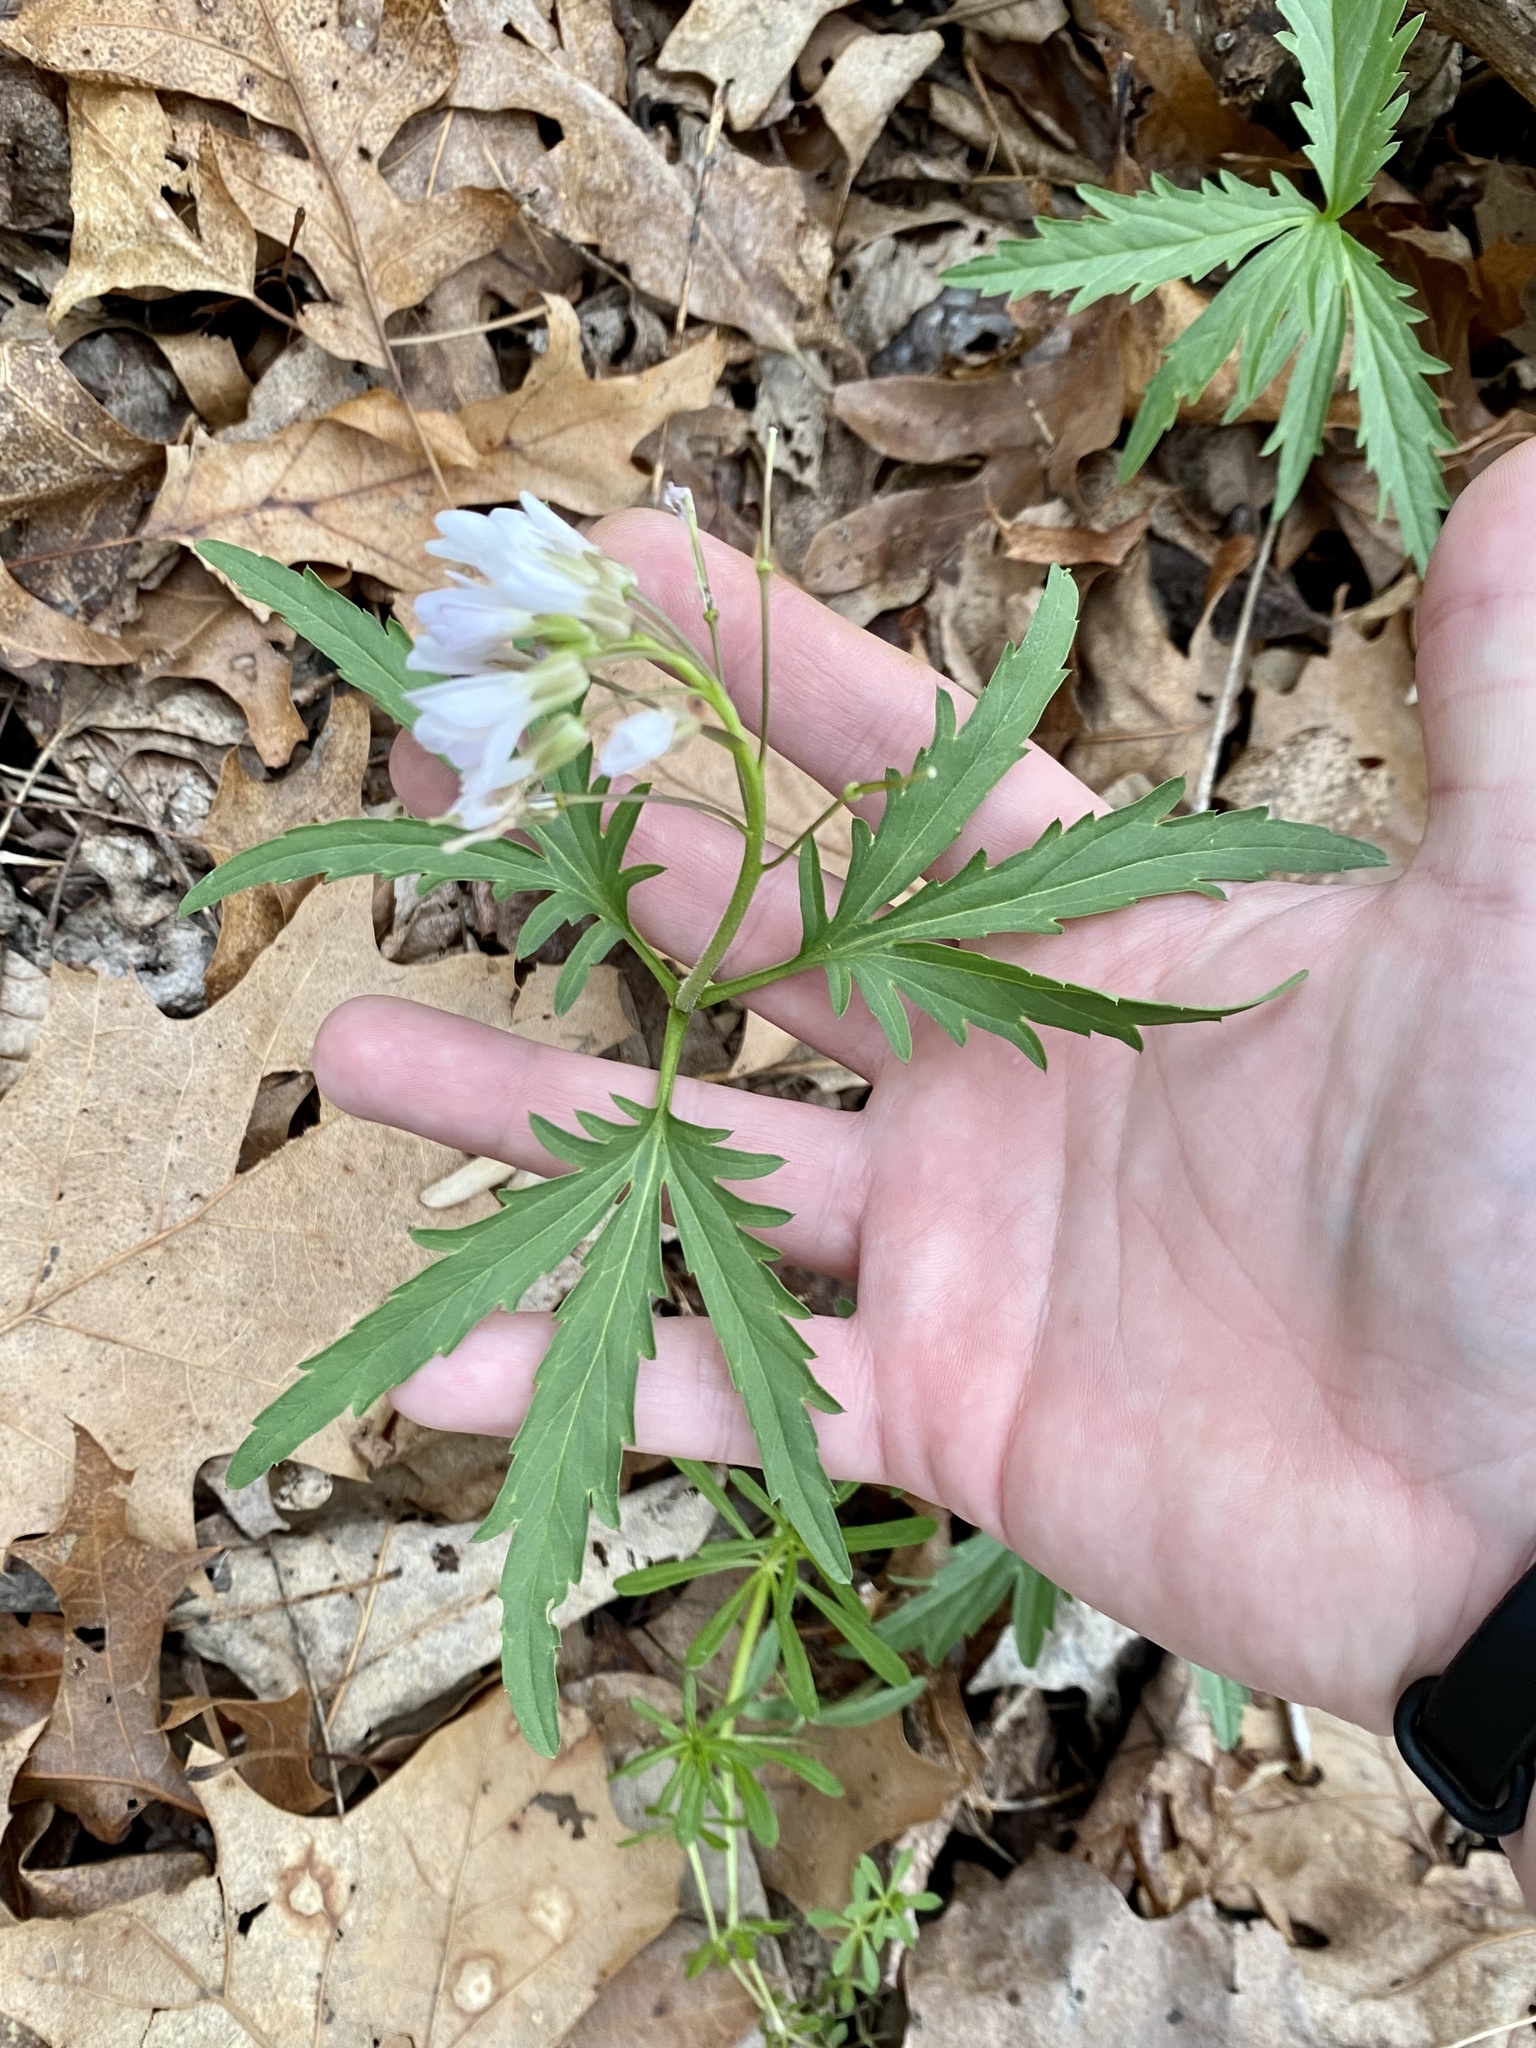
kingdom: Plantae
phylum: Tracheophyta
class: Magnoliopsida
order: Brassicales
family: Brassicaceae
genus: Cardamine
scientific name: Cardamine concatenata
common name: Cut-leaf toothcup
